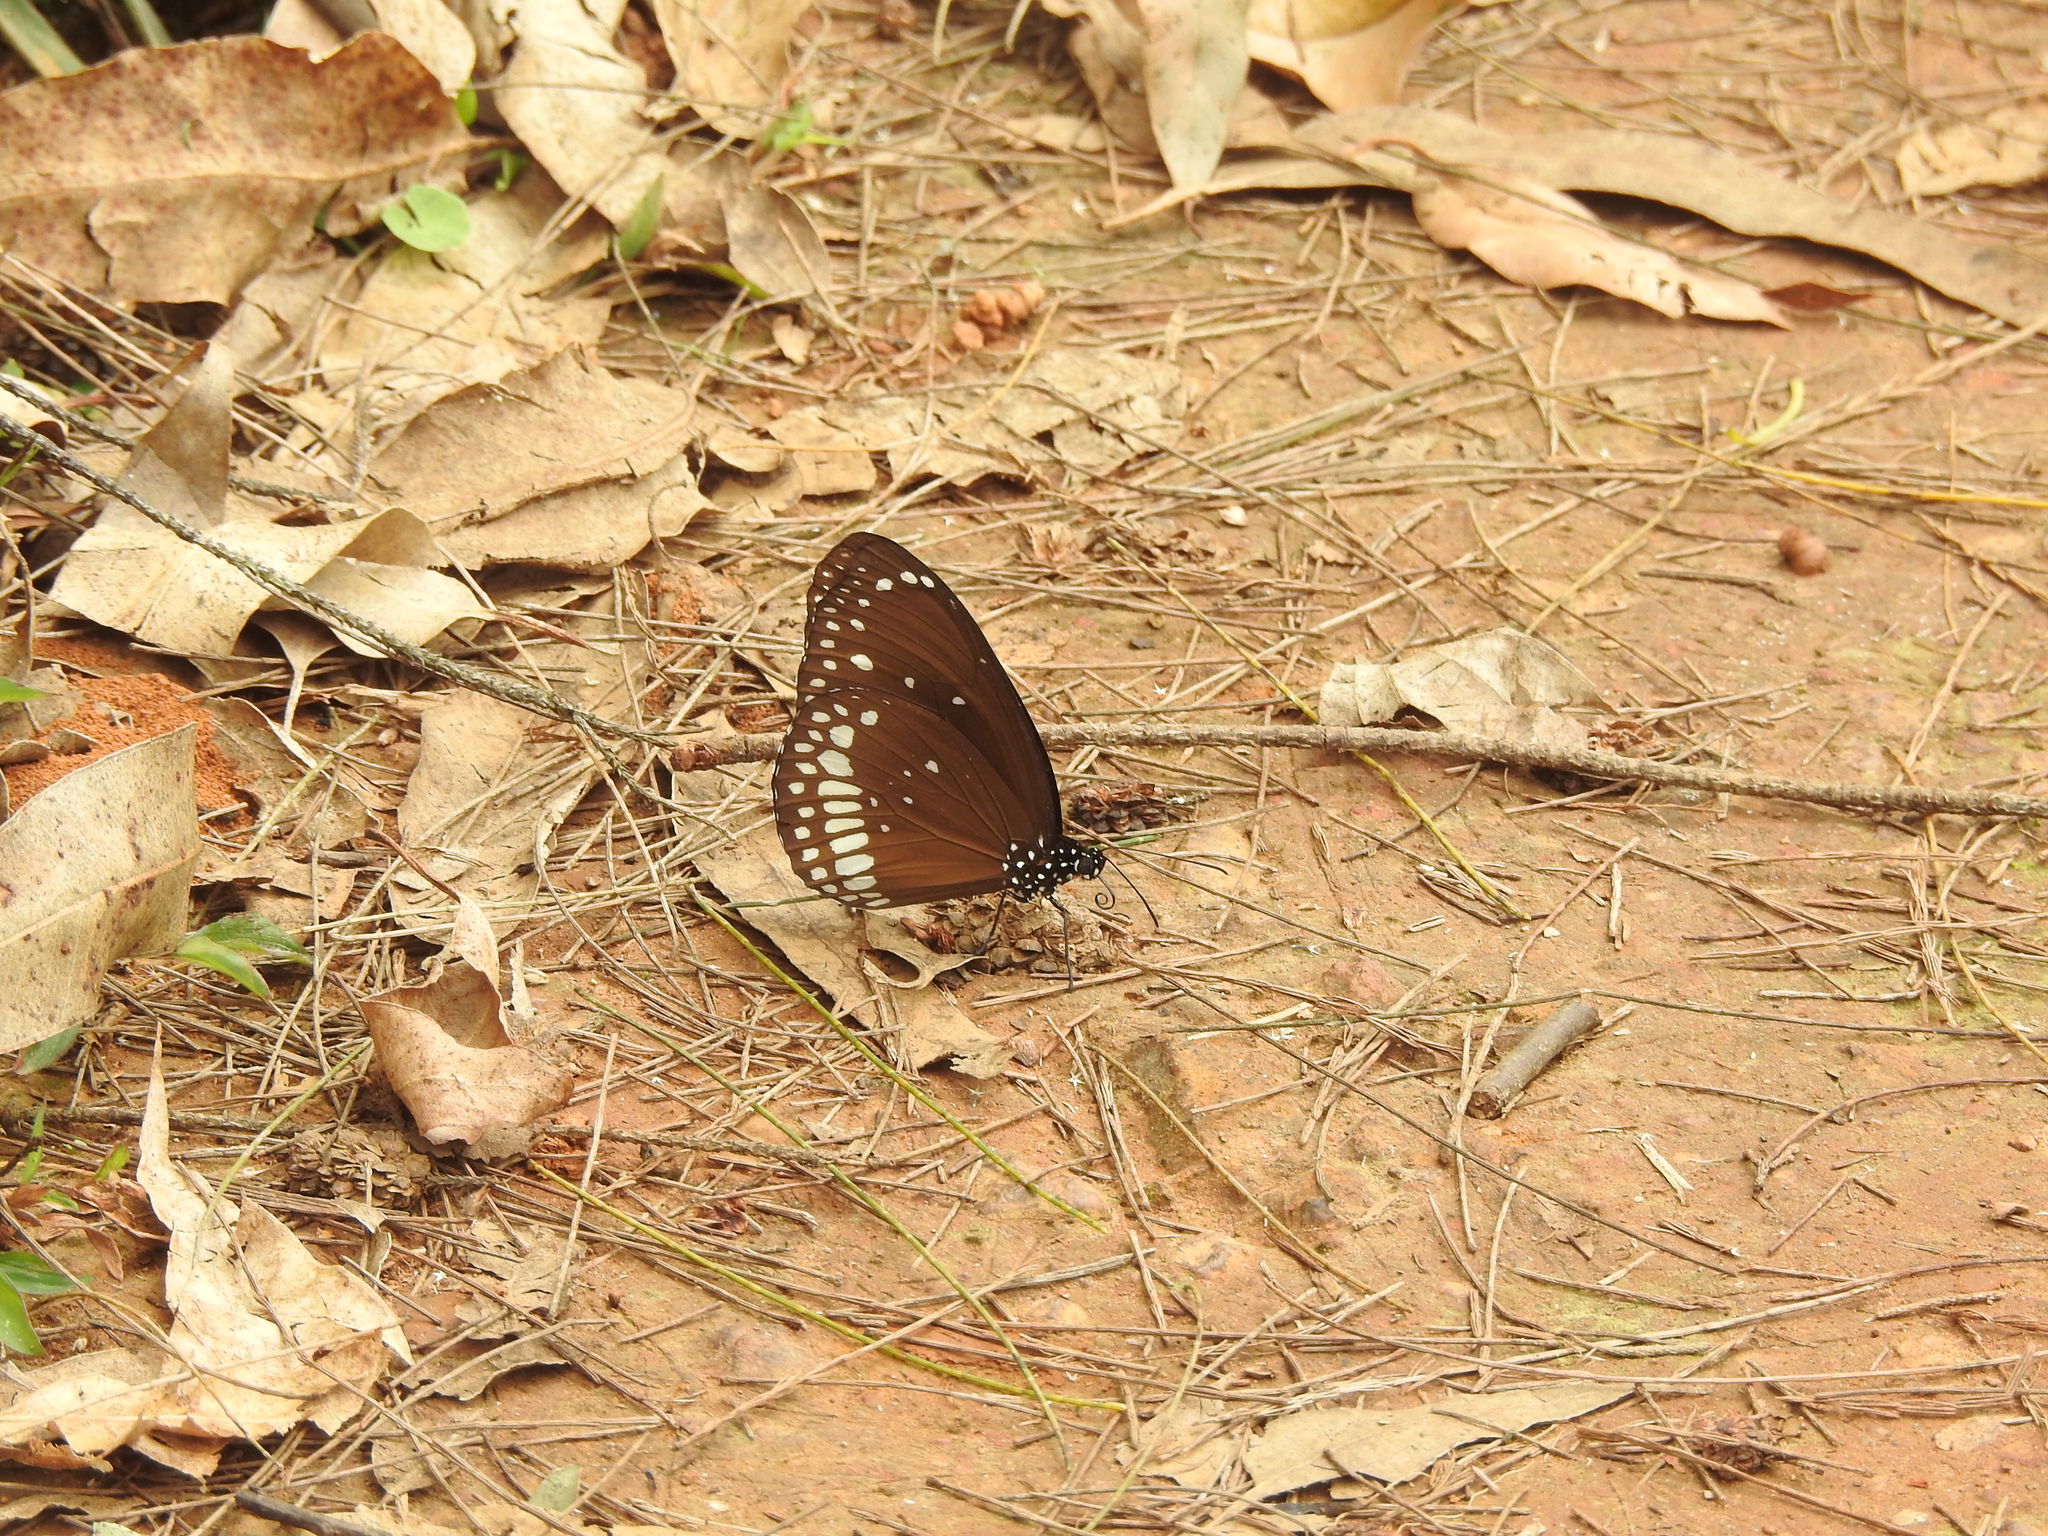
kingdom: Animalia
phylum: Arthropoda
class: Insecta
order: Lepidoptera
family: Nymphalidae
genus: Euploea
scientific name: Euploea core
